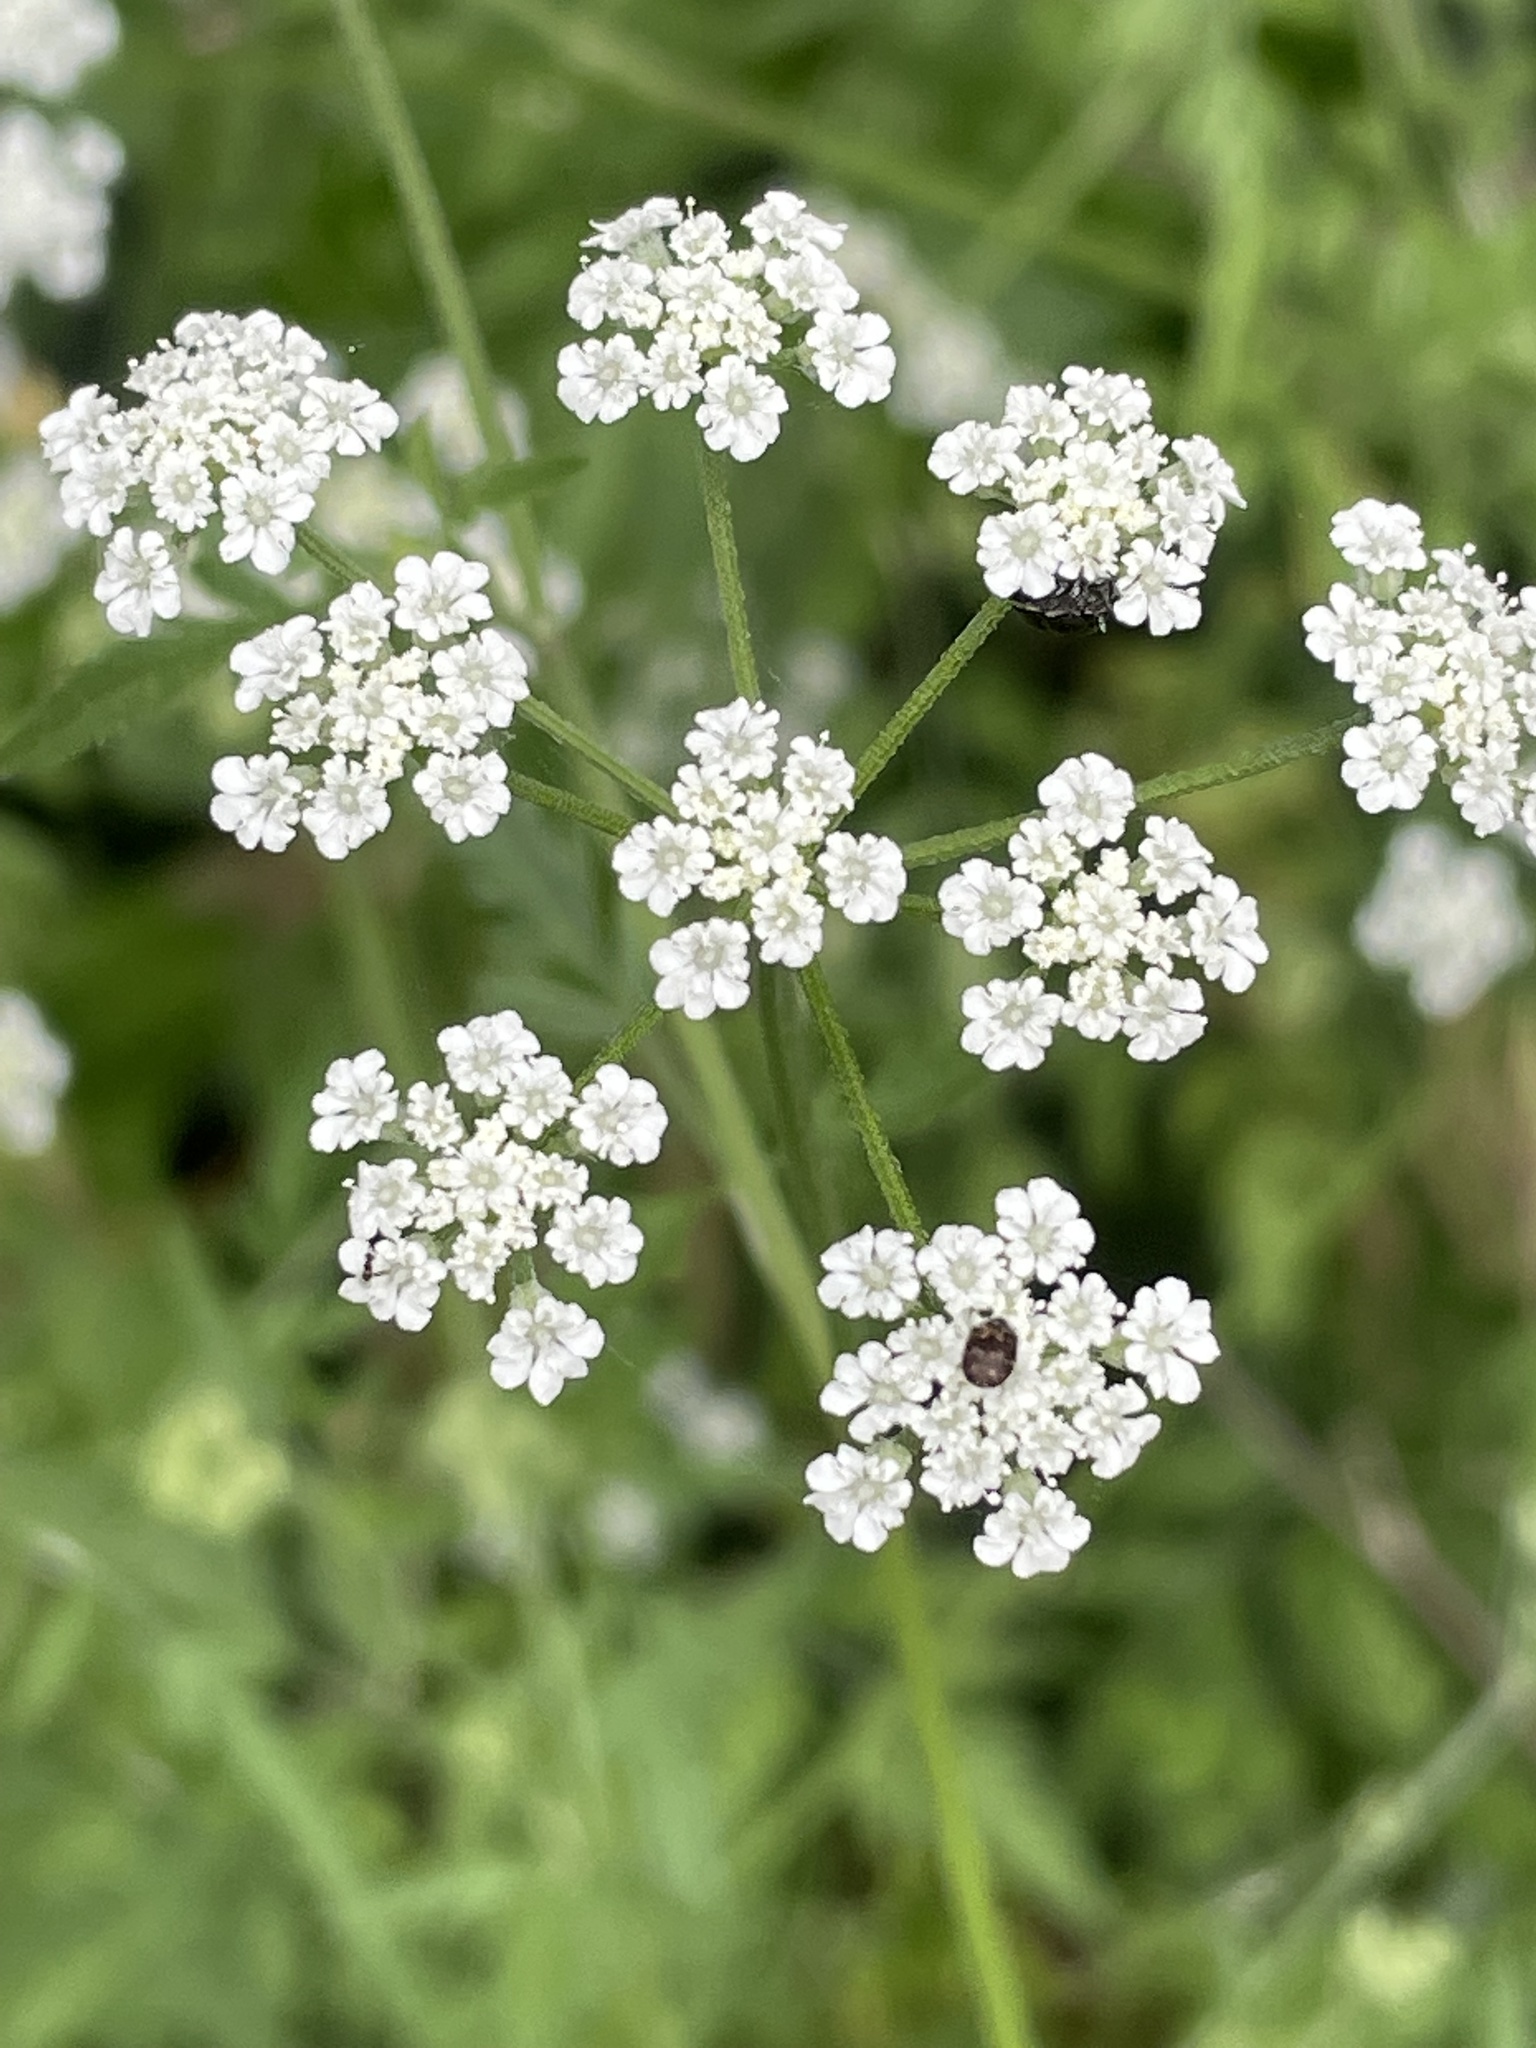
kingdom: Plantae
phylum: Tracheophyta
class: Magnoliopsida
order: Apiales
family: Apiaceae
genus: Torilis
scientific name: Torilis arvensis
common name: Spreading hedge-parsley
